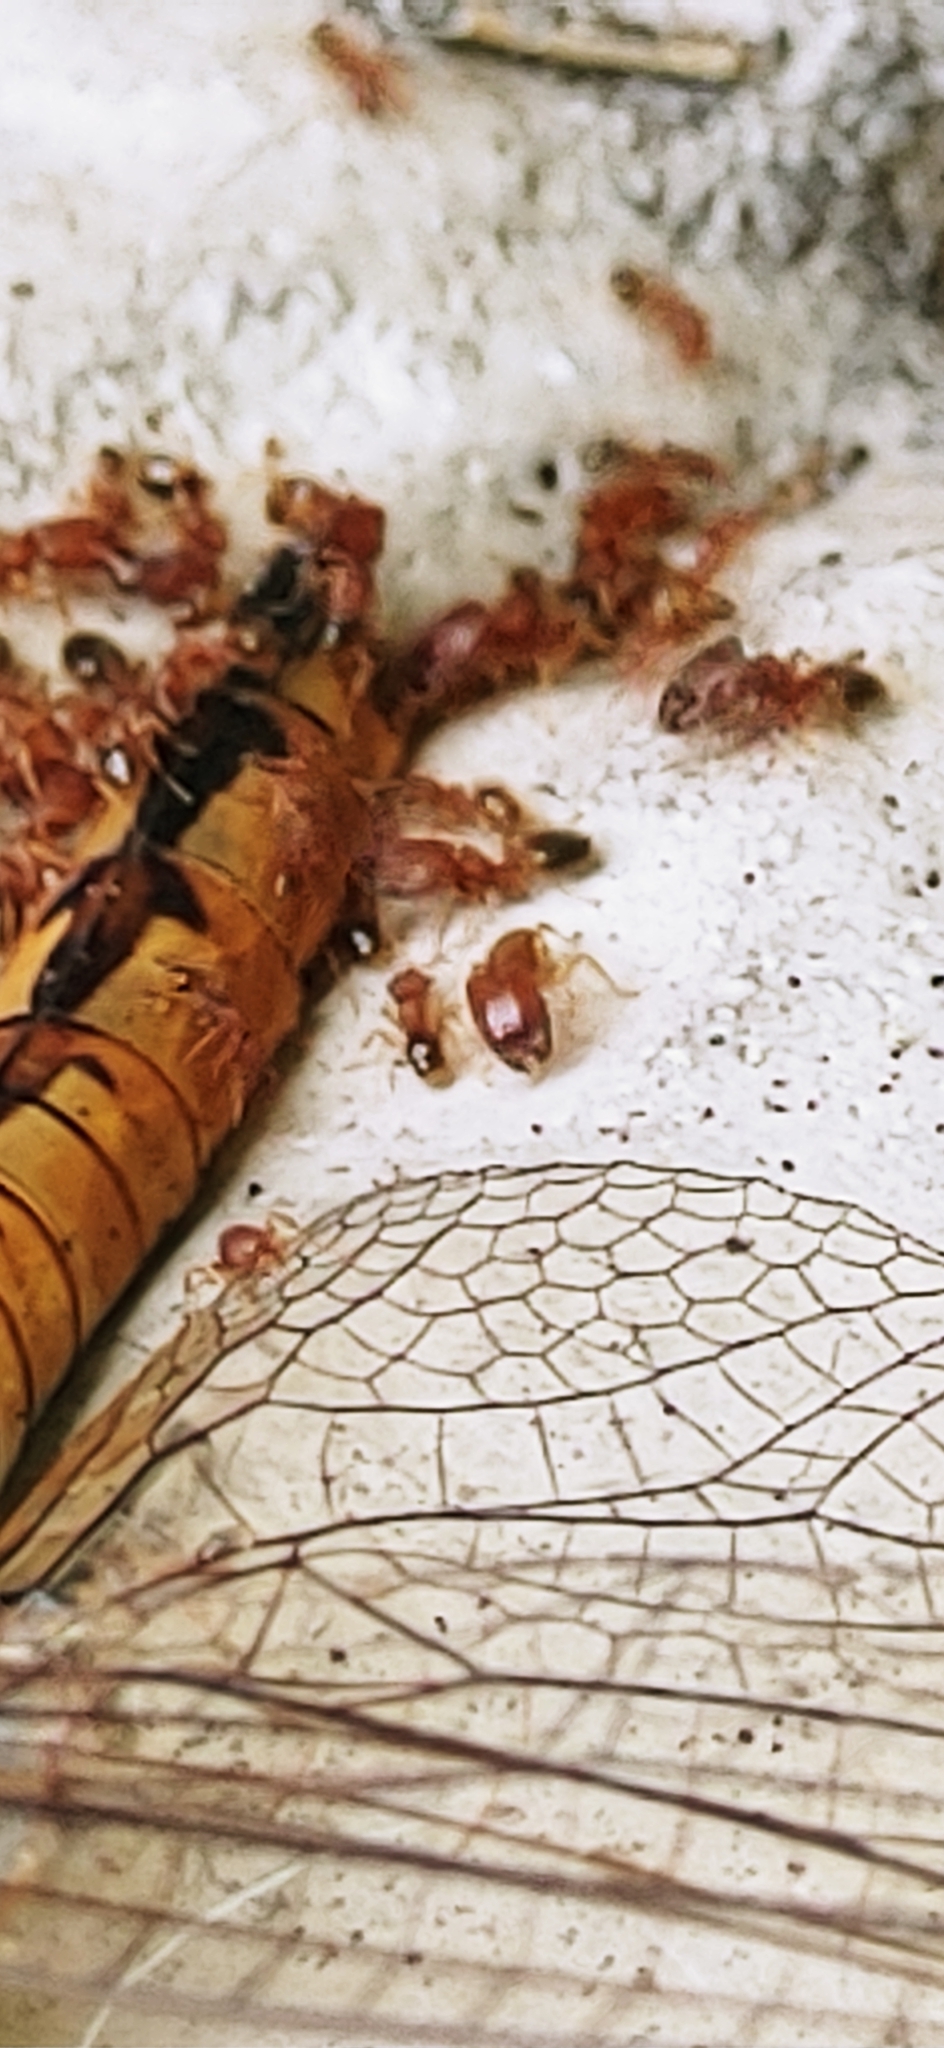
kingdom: Animalia
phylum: Arthropoda
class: Insecta
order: Hymenoptera
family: Formicidae
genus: Pheidole
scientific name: Pheidole parva
